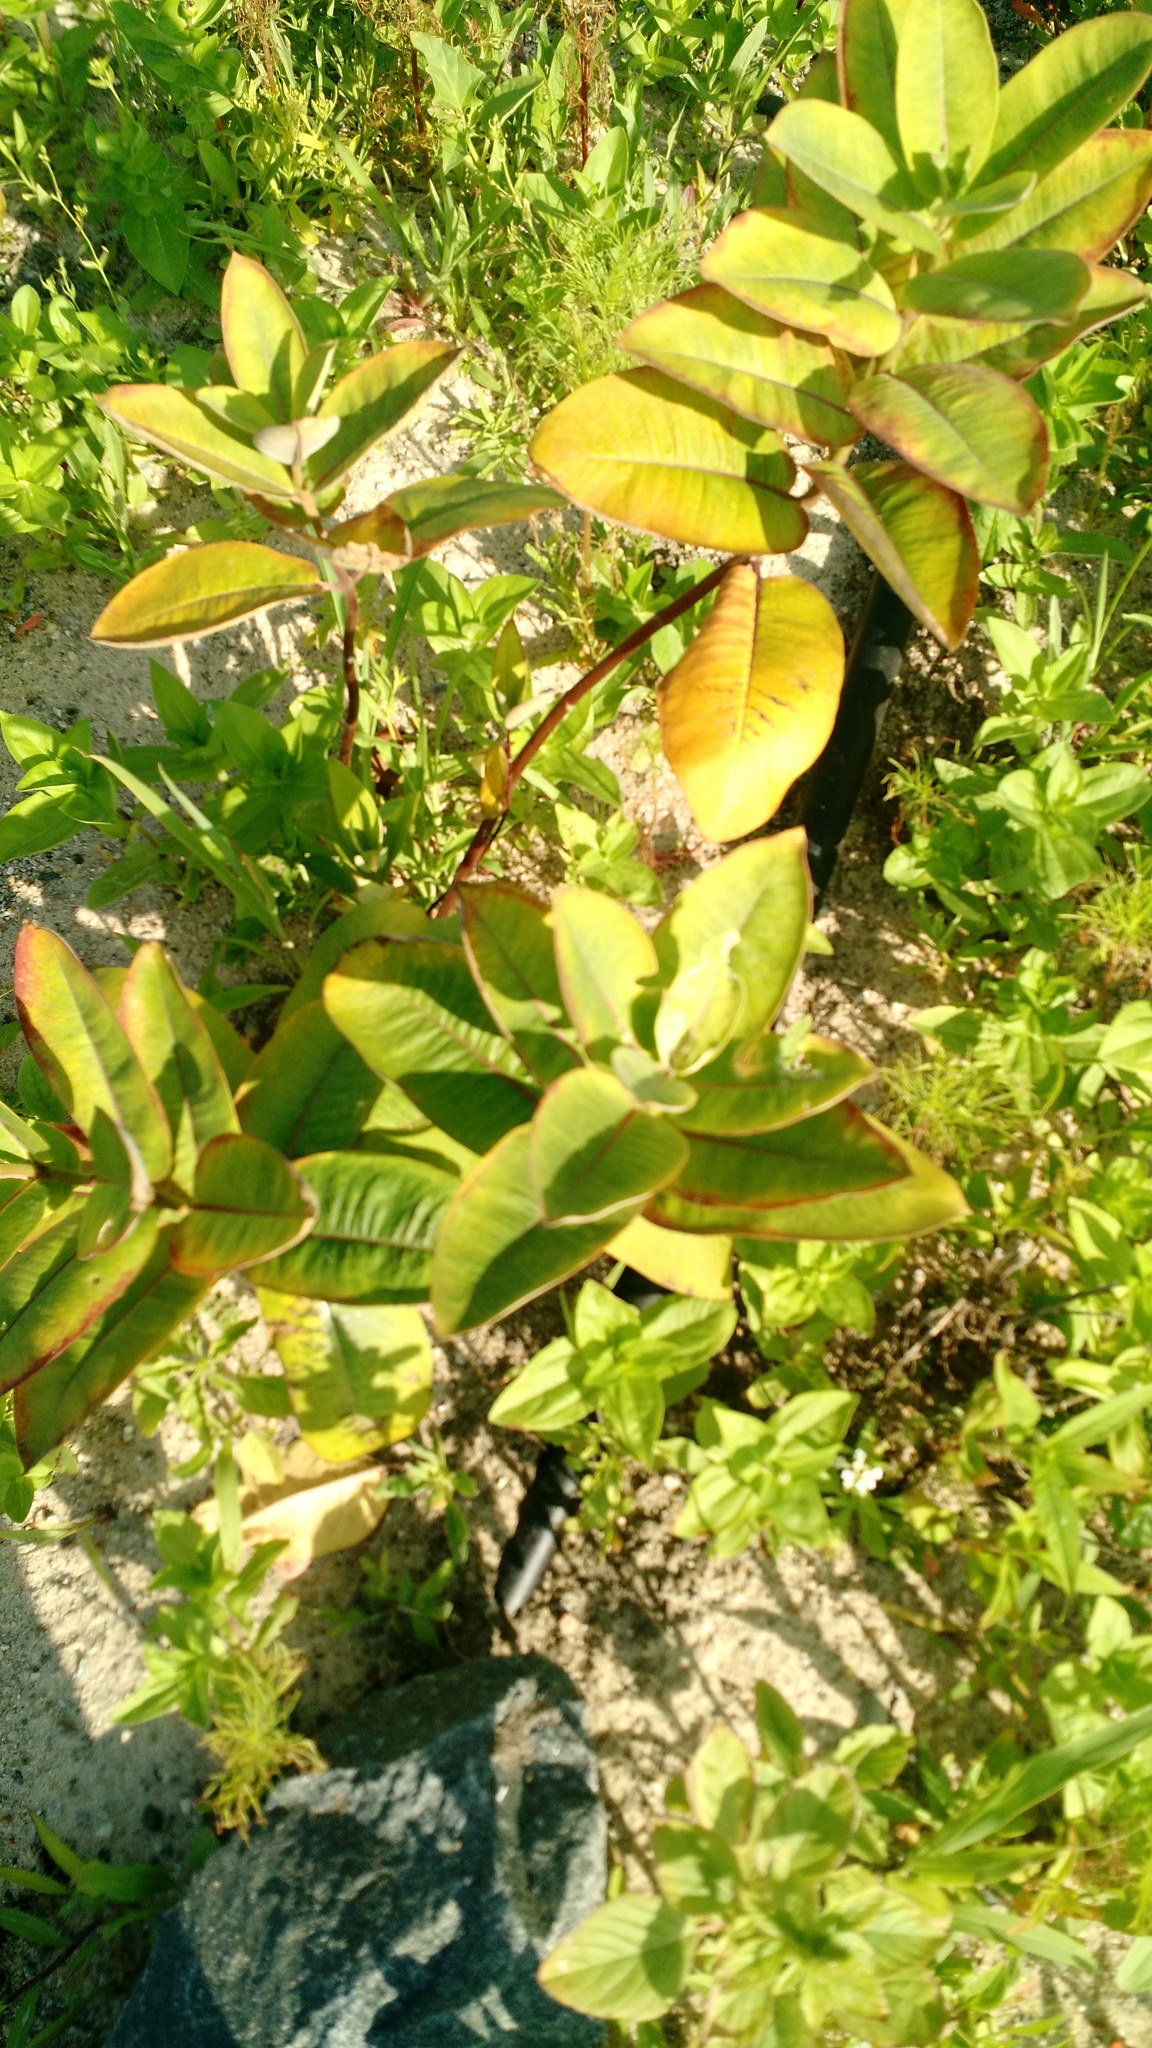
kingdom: Plantae
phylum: Tracheophyta
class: Magnoliopsida
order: Gentianales
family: Apocynaceae
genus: Asclepias
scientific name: Asclepias syriaca
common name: Common milkweed
